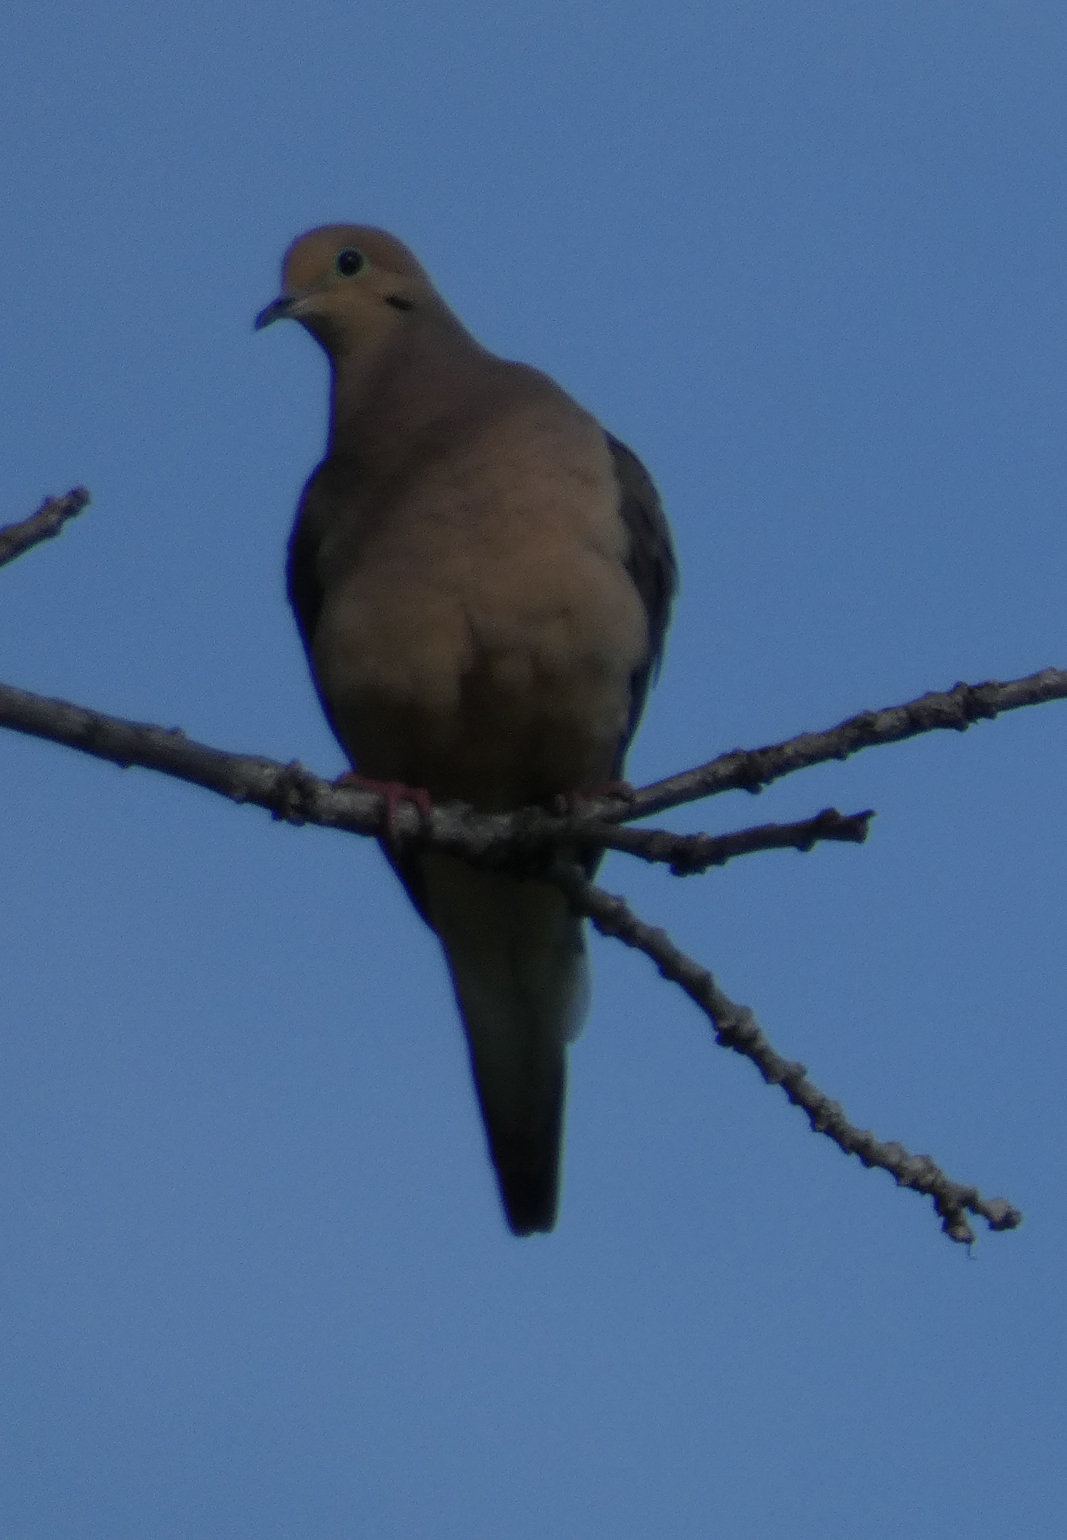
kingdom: Animalia
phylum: Chordata
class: Aves
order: Columbiformes
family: Columbidae
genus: Zenaida
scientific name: Zenaida macroura
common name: Mourning dove
